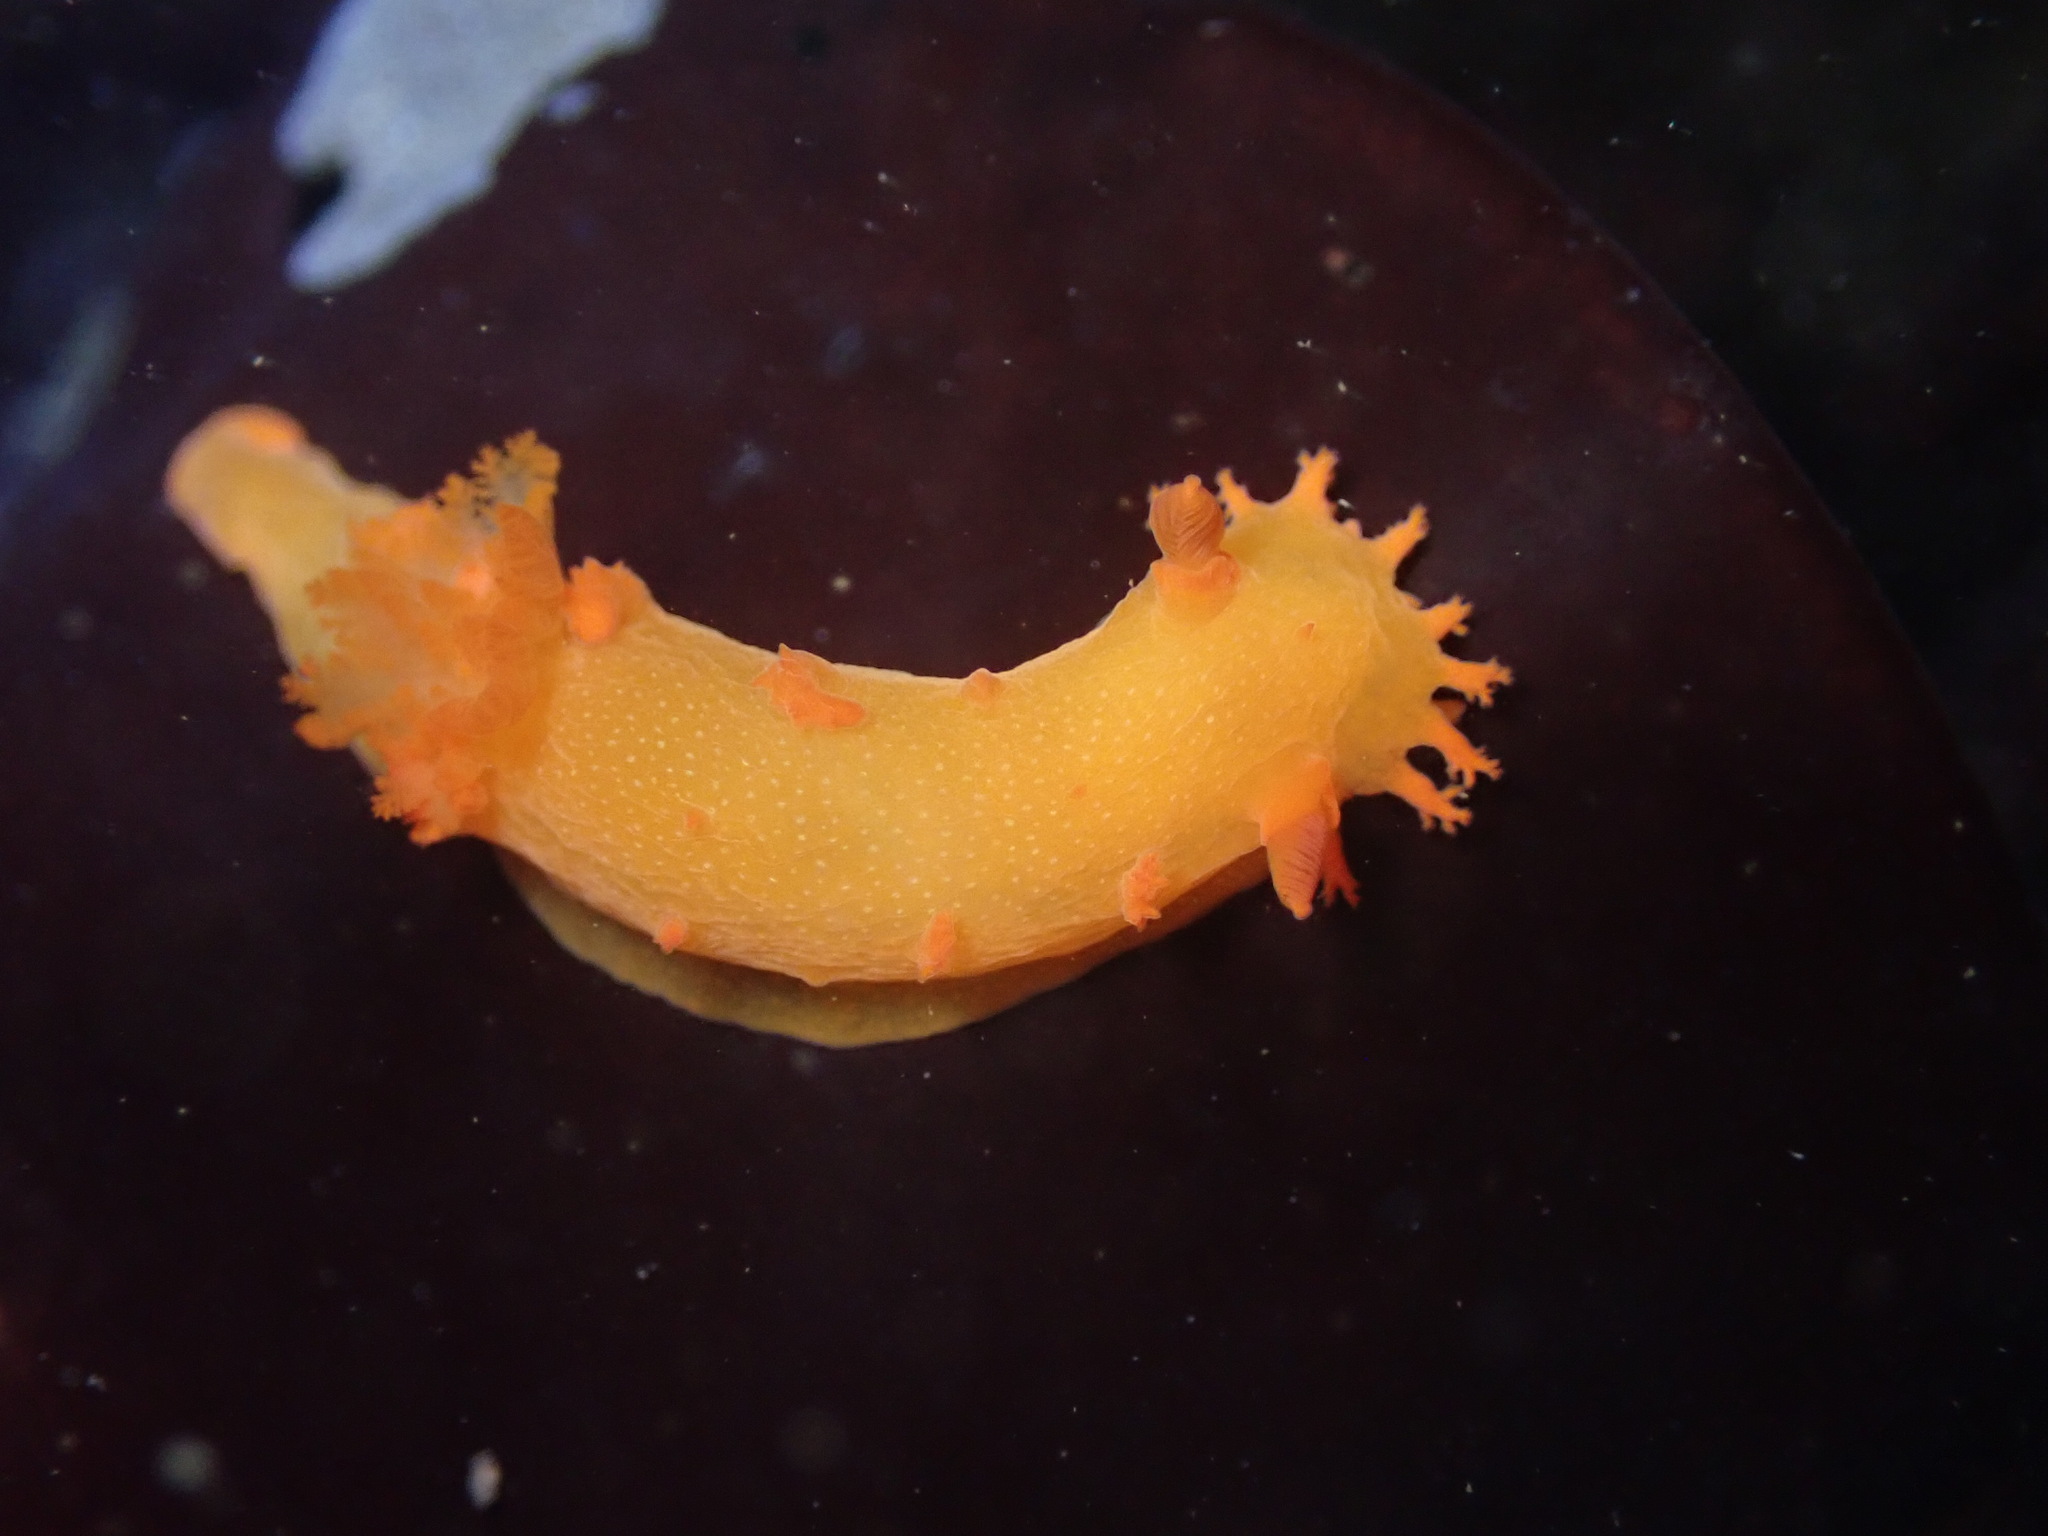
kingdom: Animalia
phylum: Mollusca
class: Gastropoda
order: Nudibranchia
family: Polyceridae
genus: Triopha
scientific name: Triopha maculata
